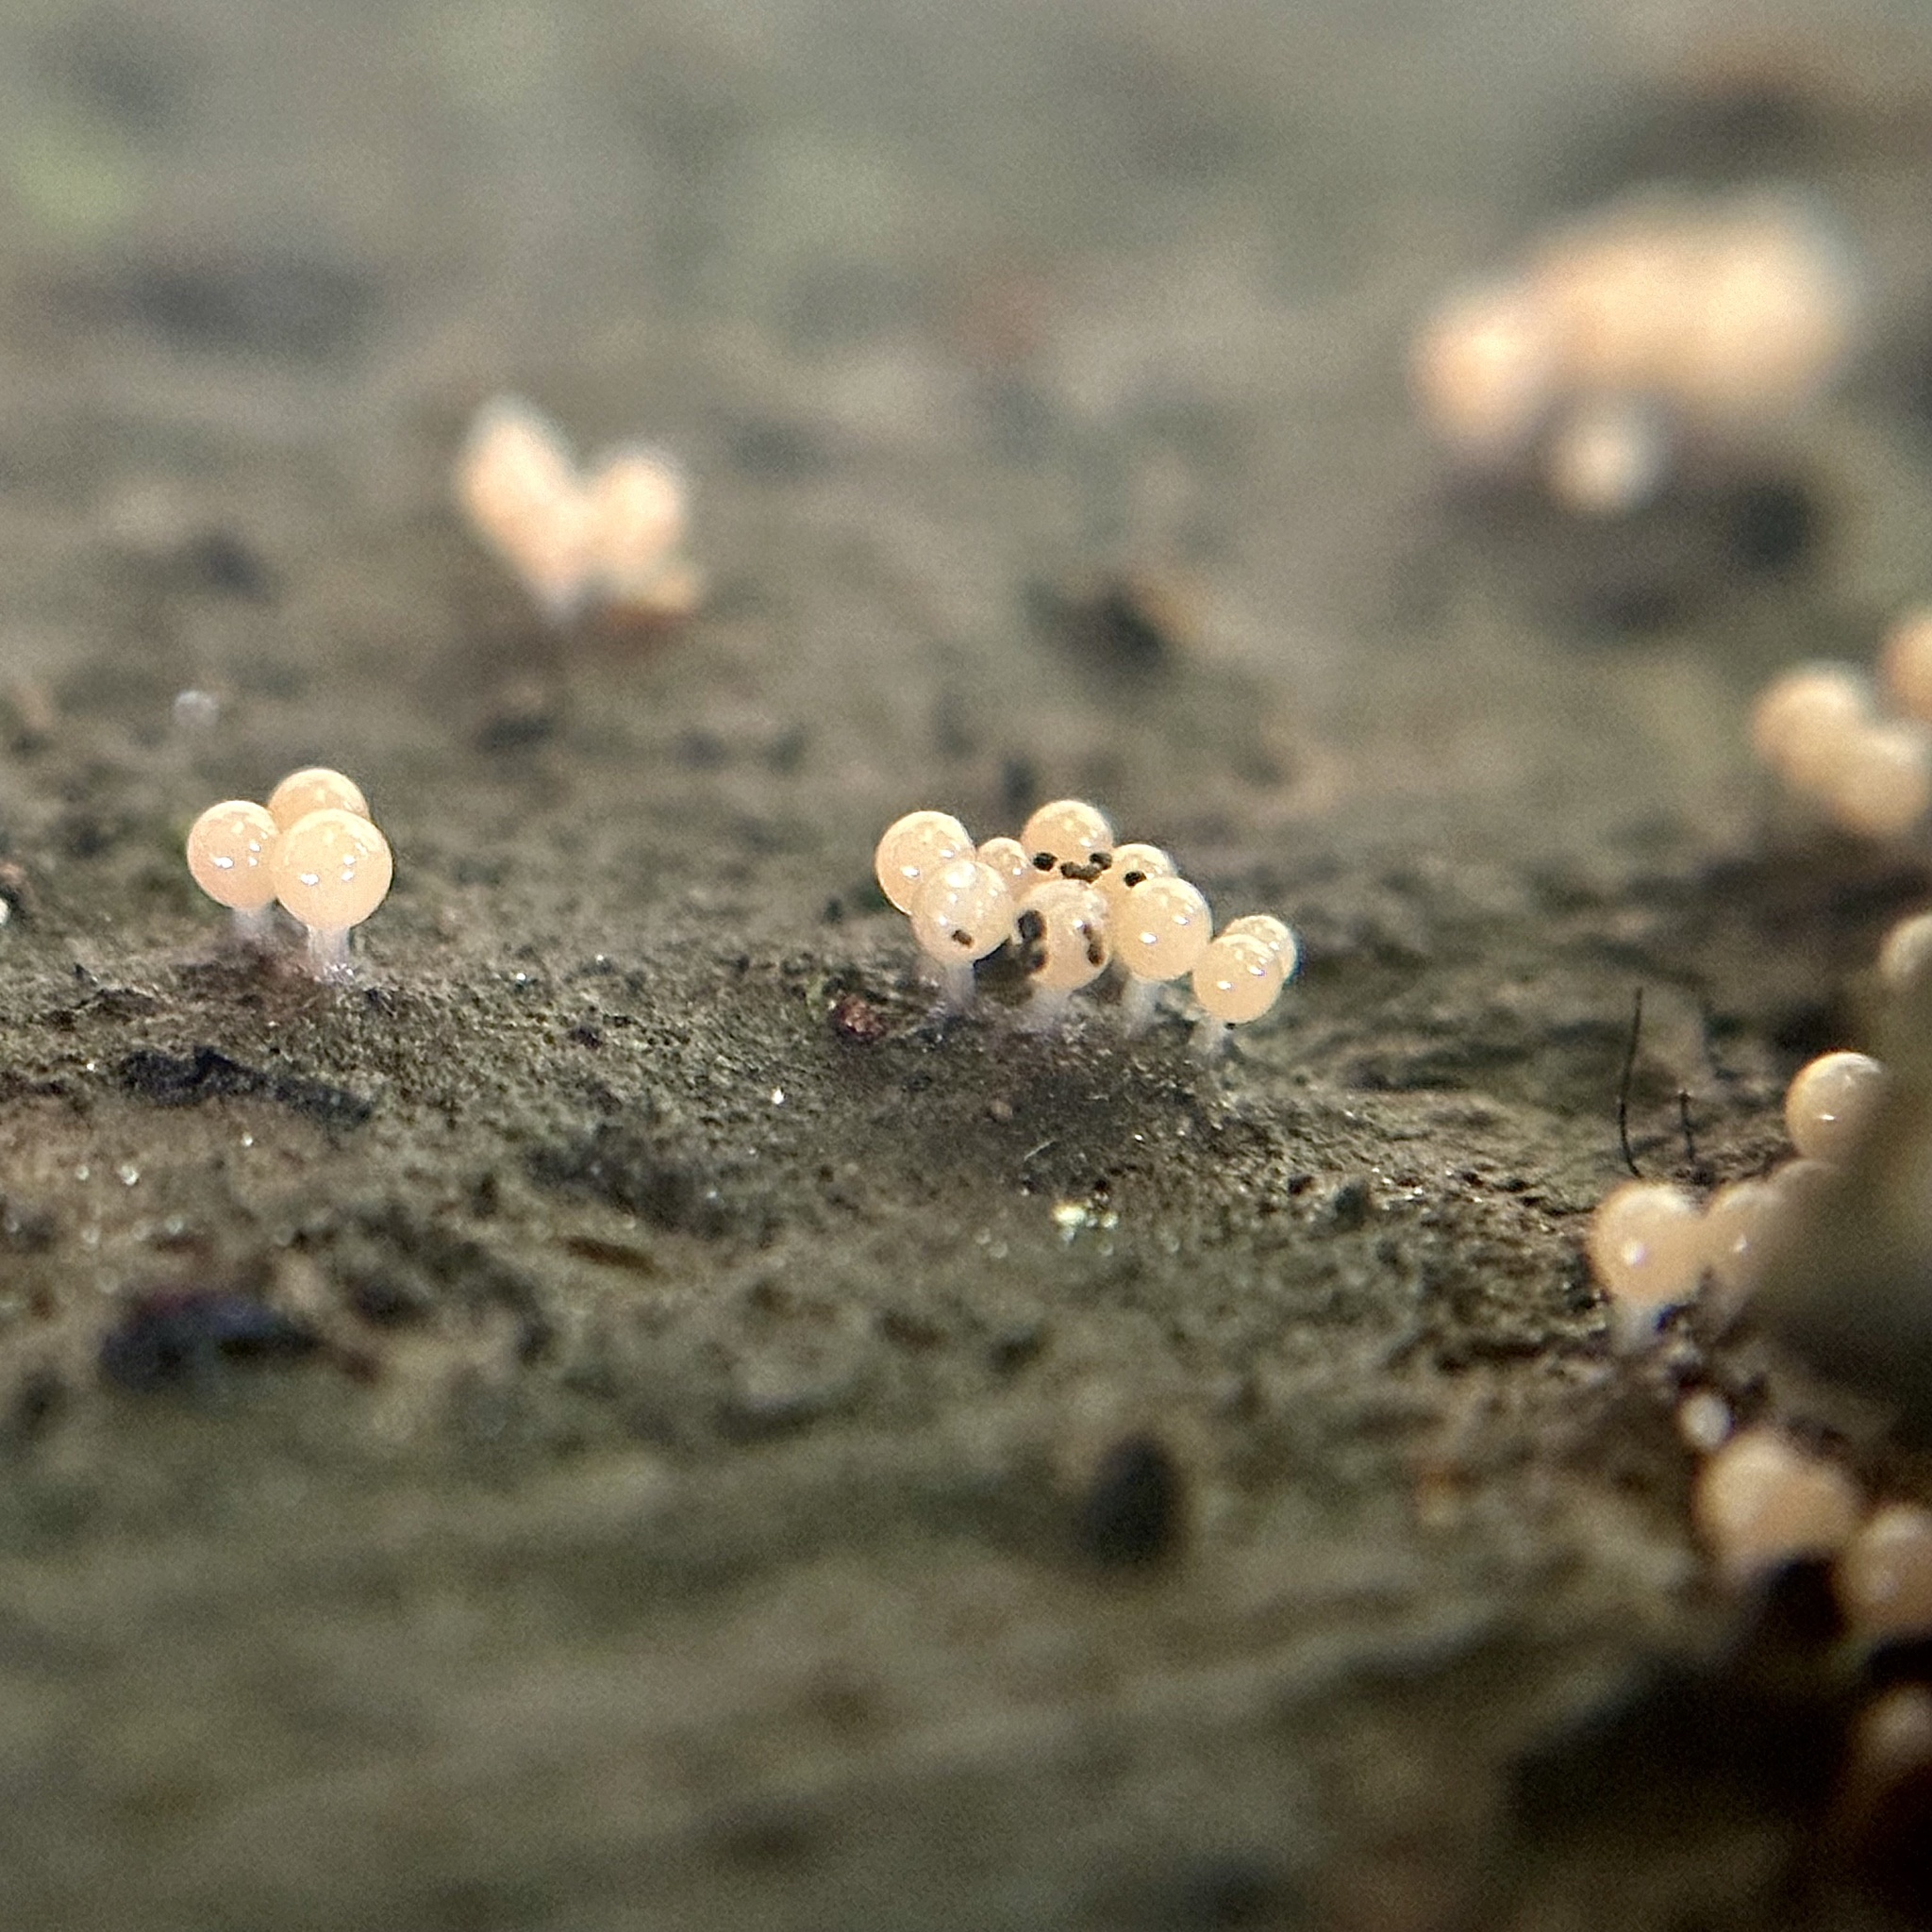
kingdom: Protozoa
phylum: Mycetozoa
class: Myxomycetes
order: Trichiales
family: Arcyriaceae
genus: Hemitrichia
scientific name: Hemitrichia calyculata
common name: Push pin slime mold
